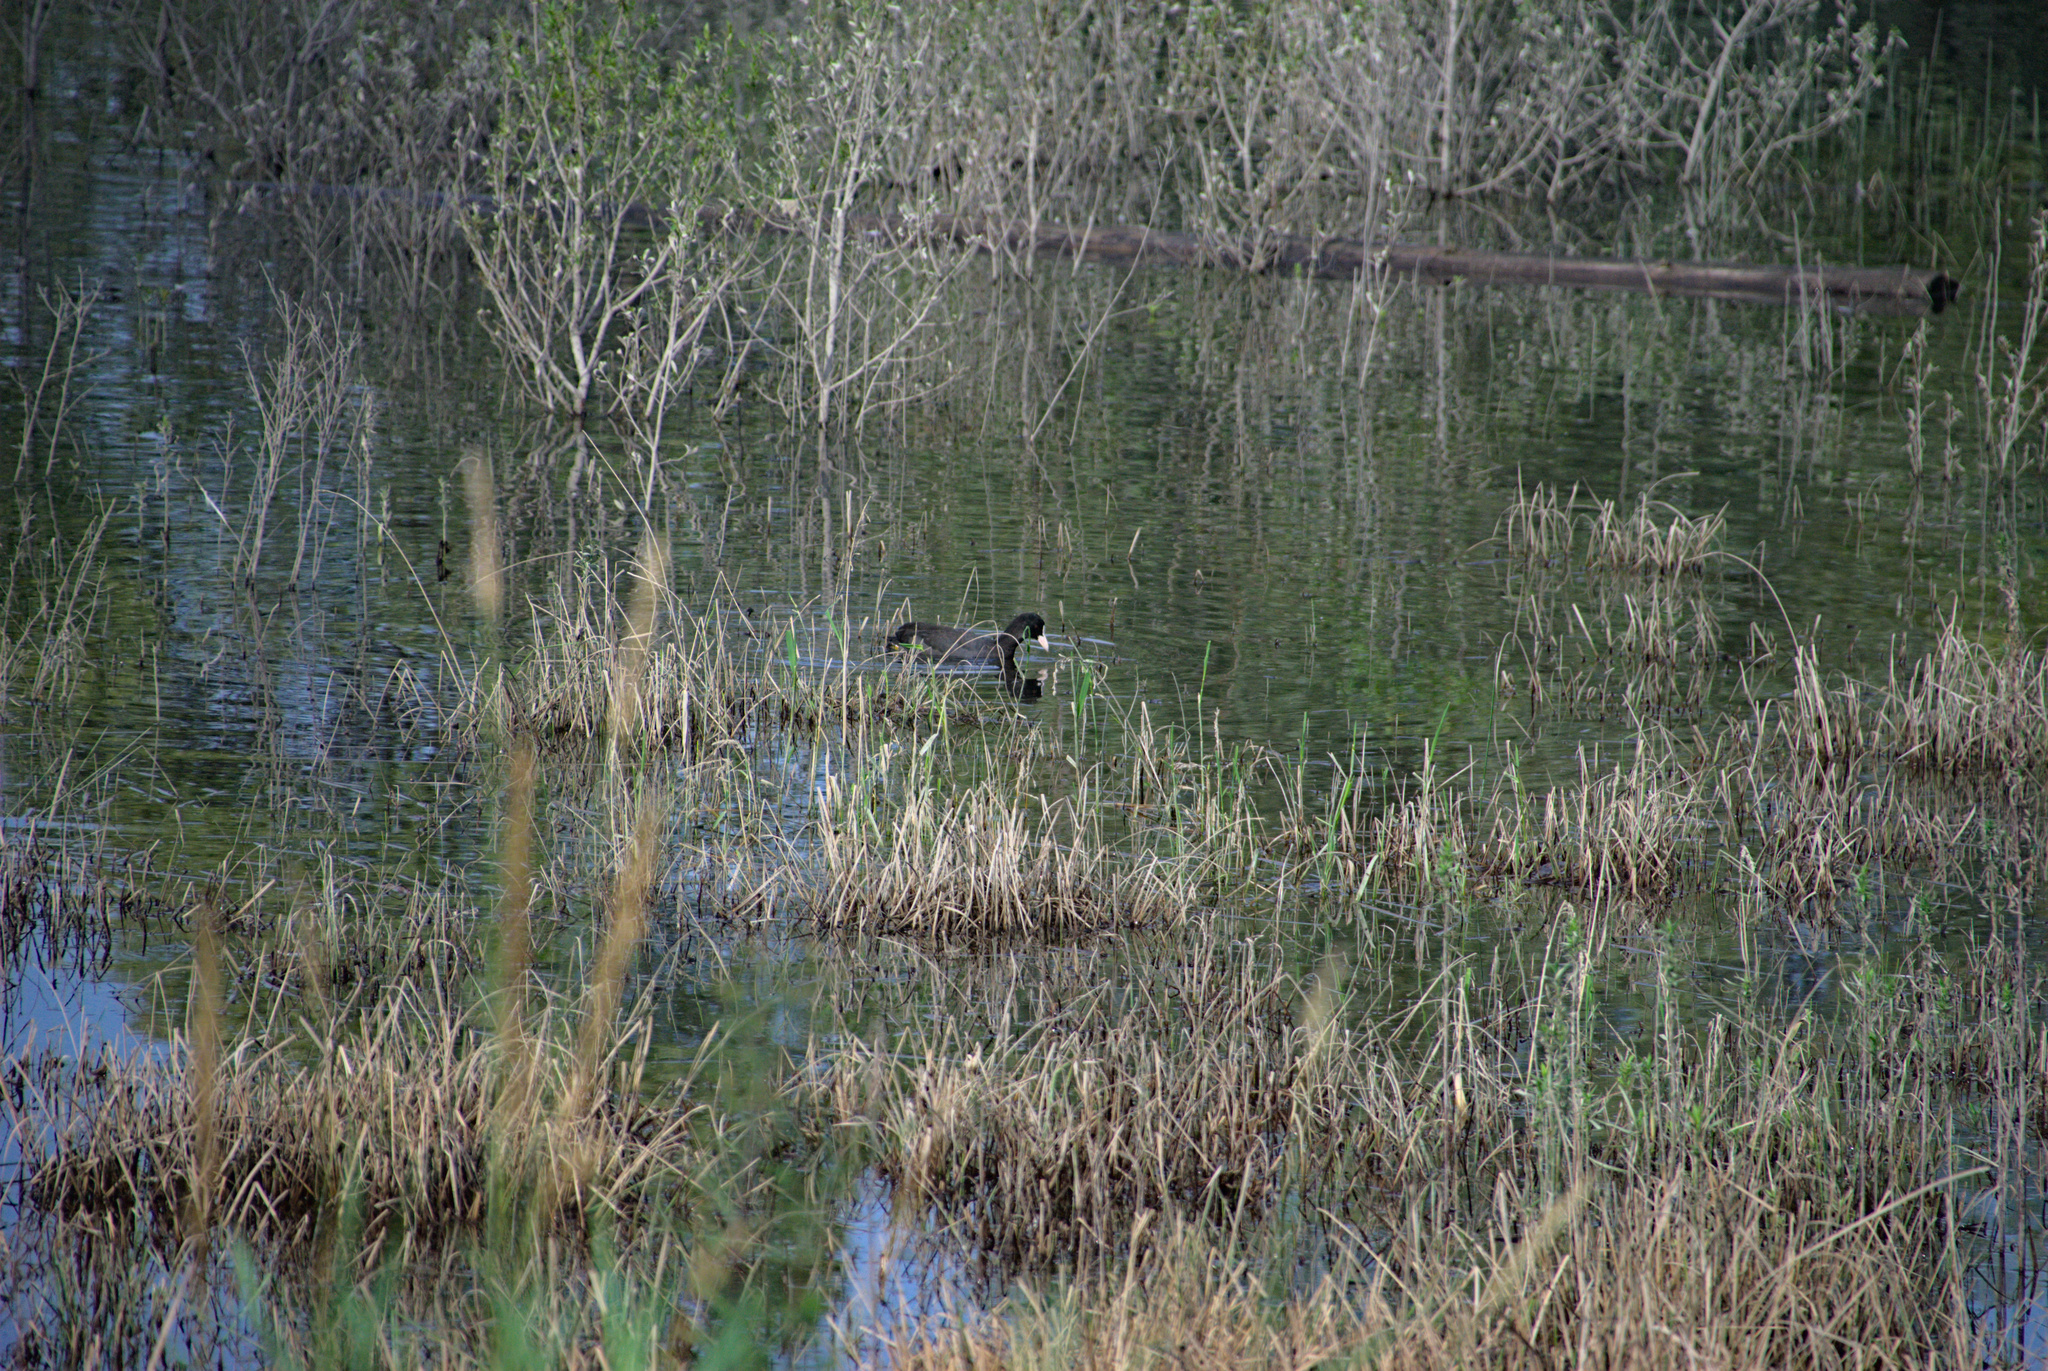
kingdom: Animalia
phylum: Chordata
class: Aves
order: Gruiformes
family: Rallidae
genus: Fulica
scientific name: Fulica atra
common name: Eurasian coot
